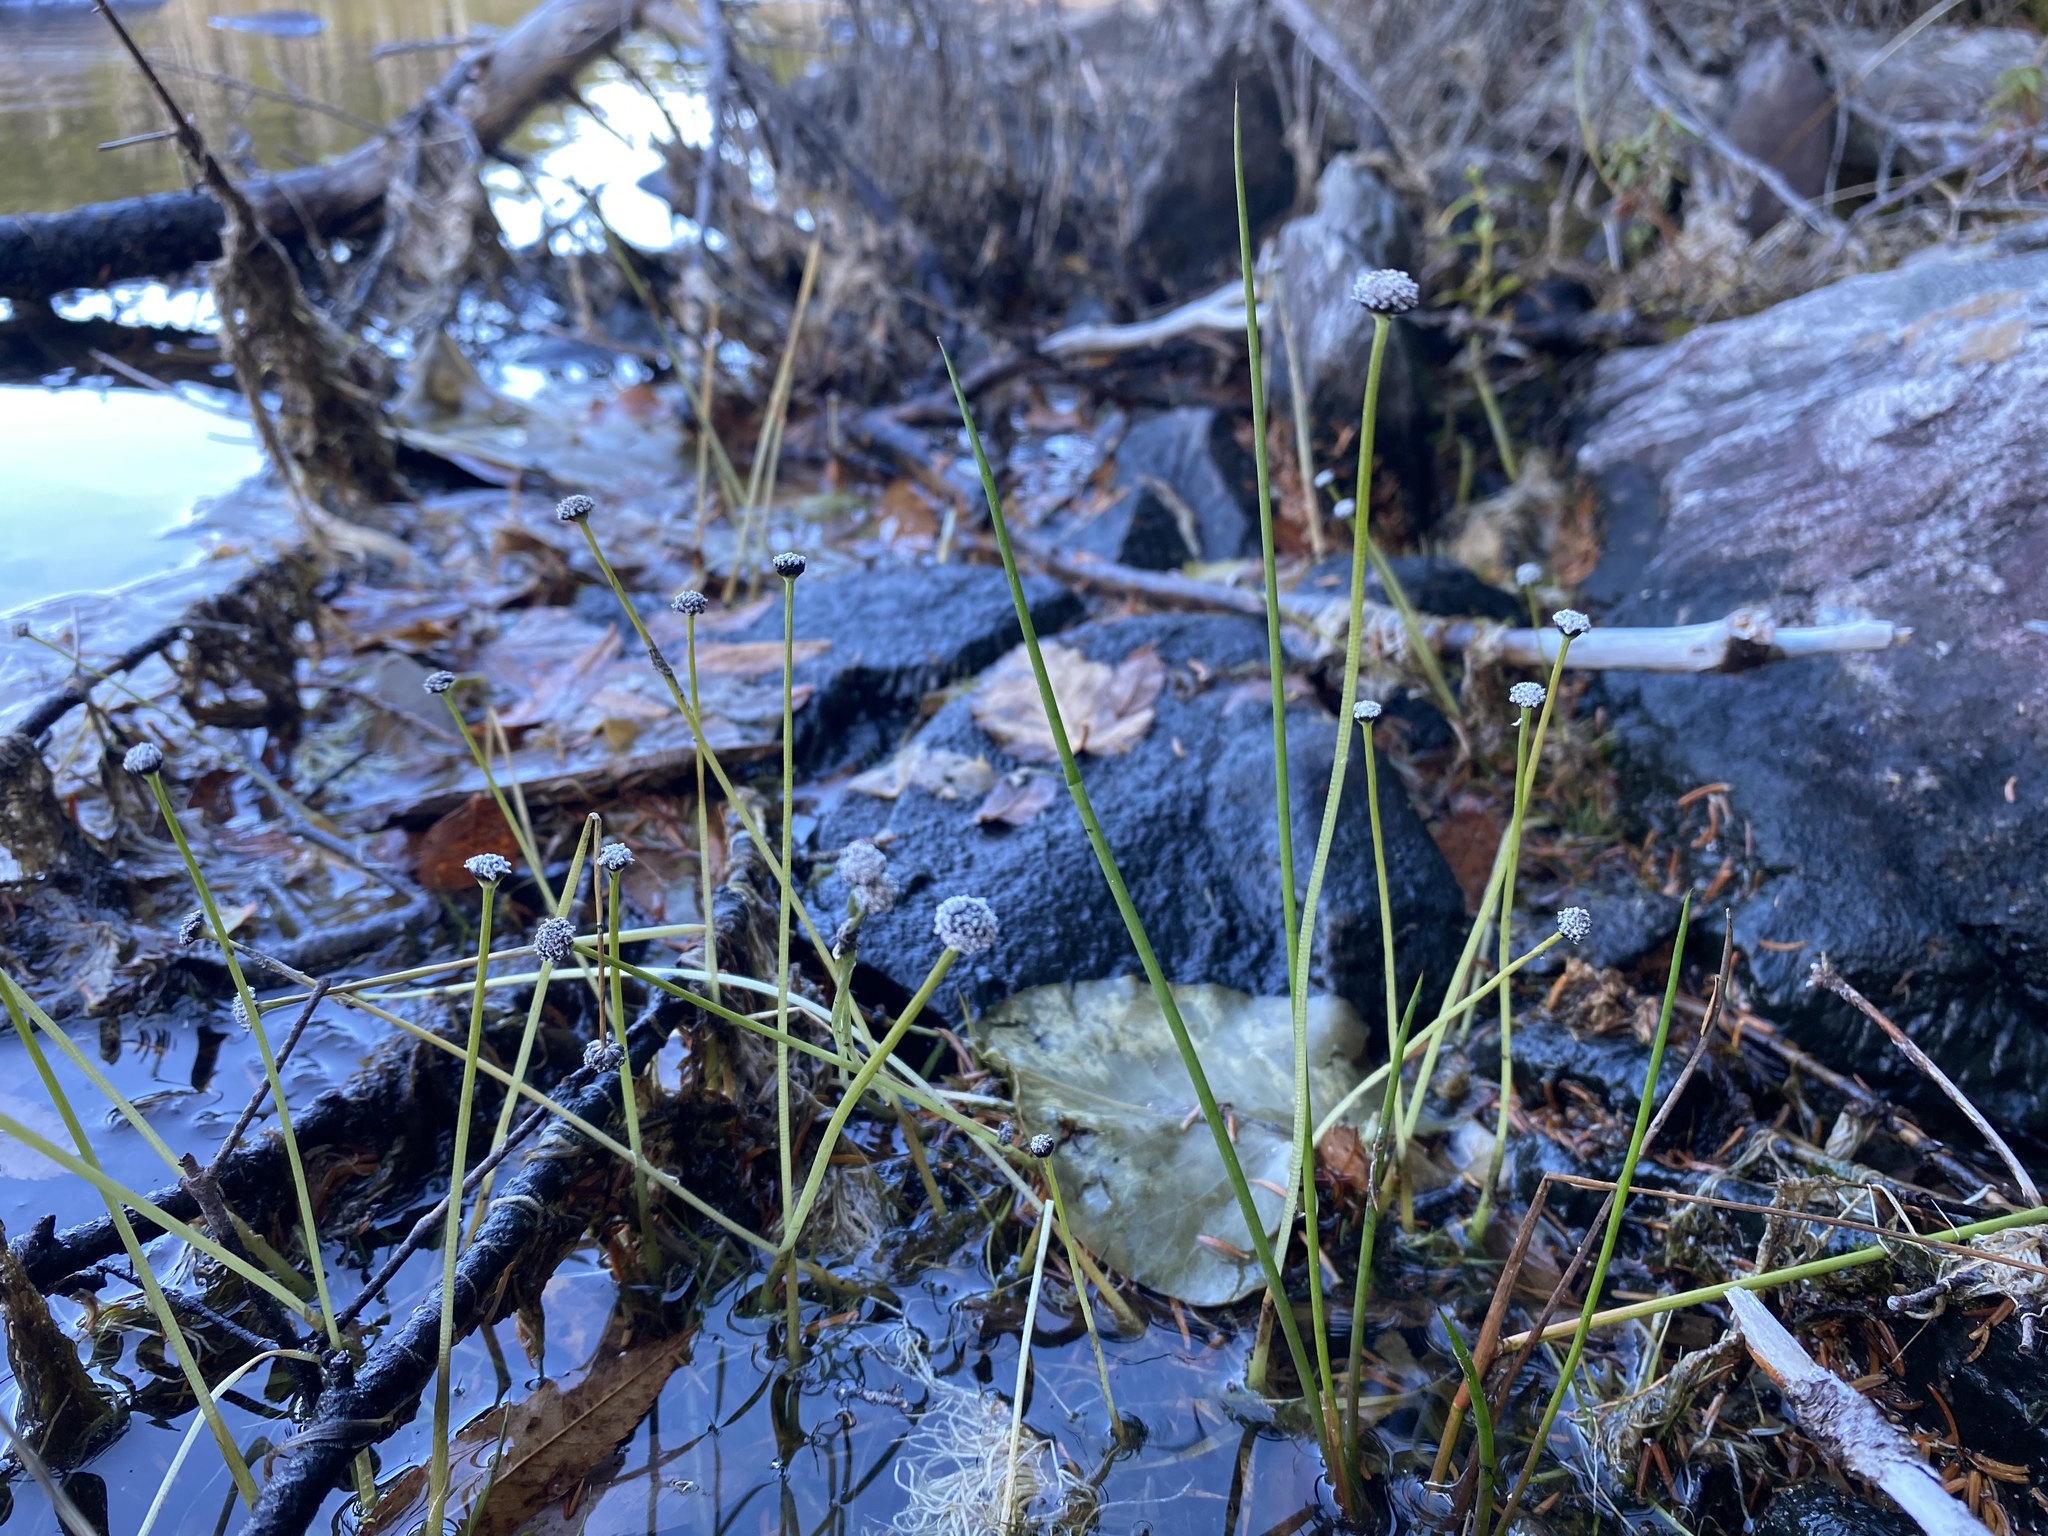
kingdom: Plantae
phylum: Tracheophyta
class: Liliopsida
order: Poales
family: Eriocaulaceae
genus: Eriocaulon
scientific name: Eriocaulon aquaticum
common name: Pipewort
